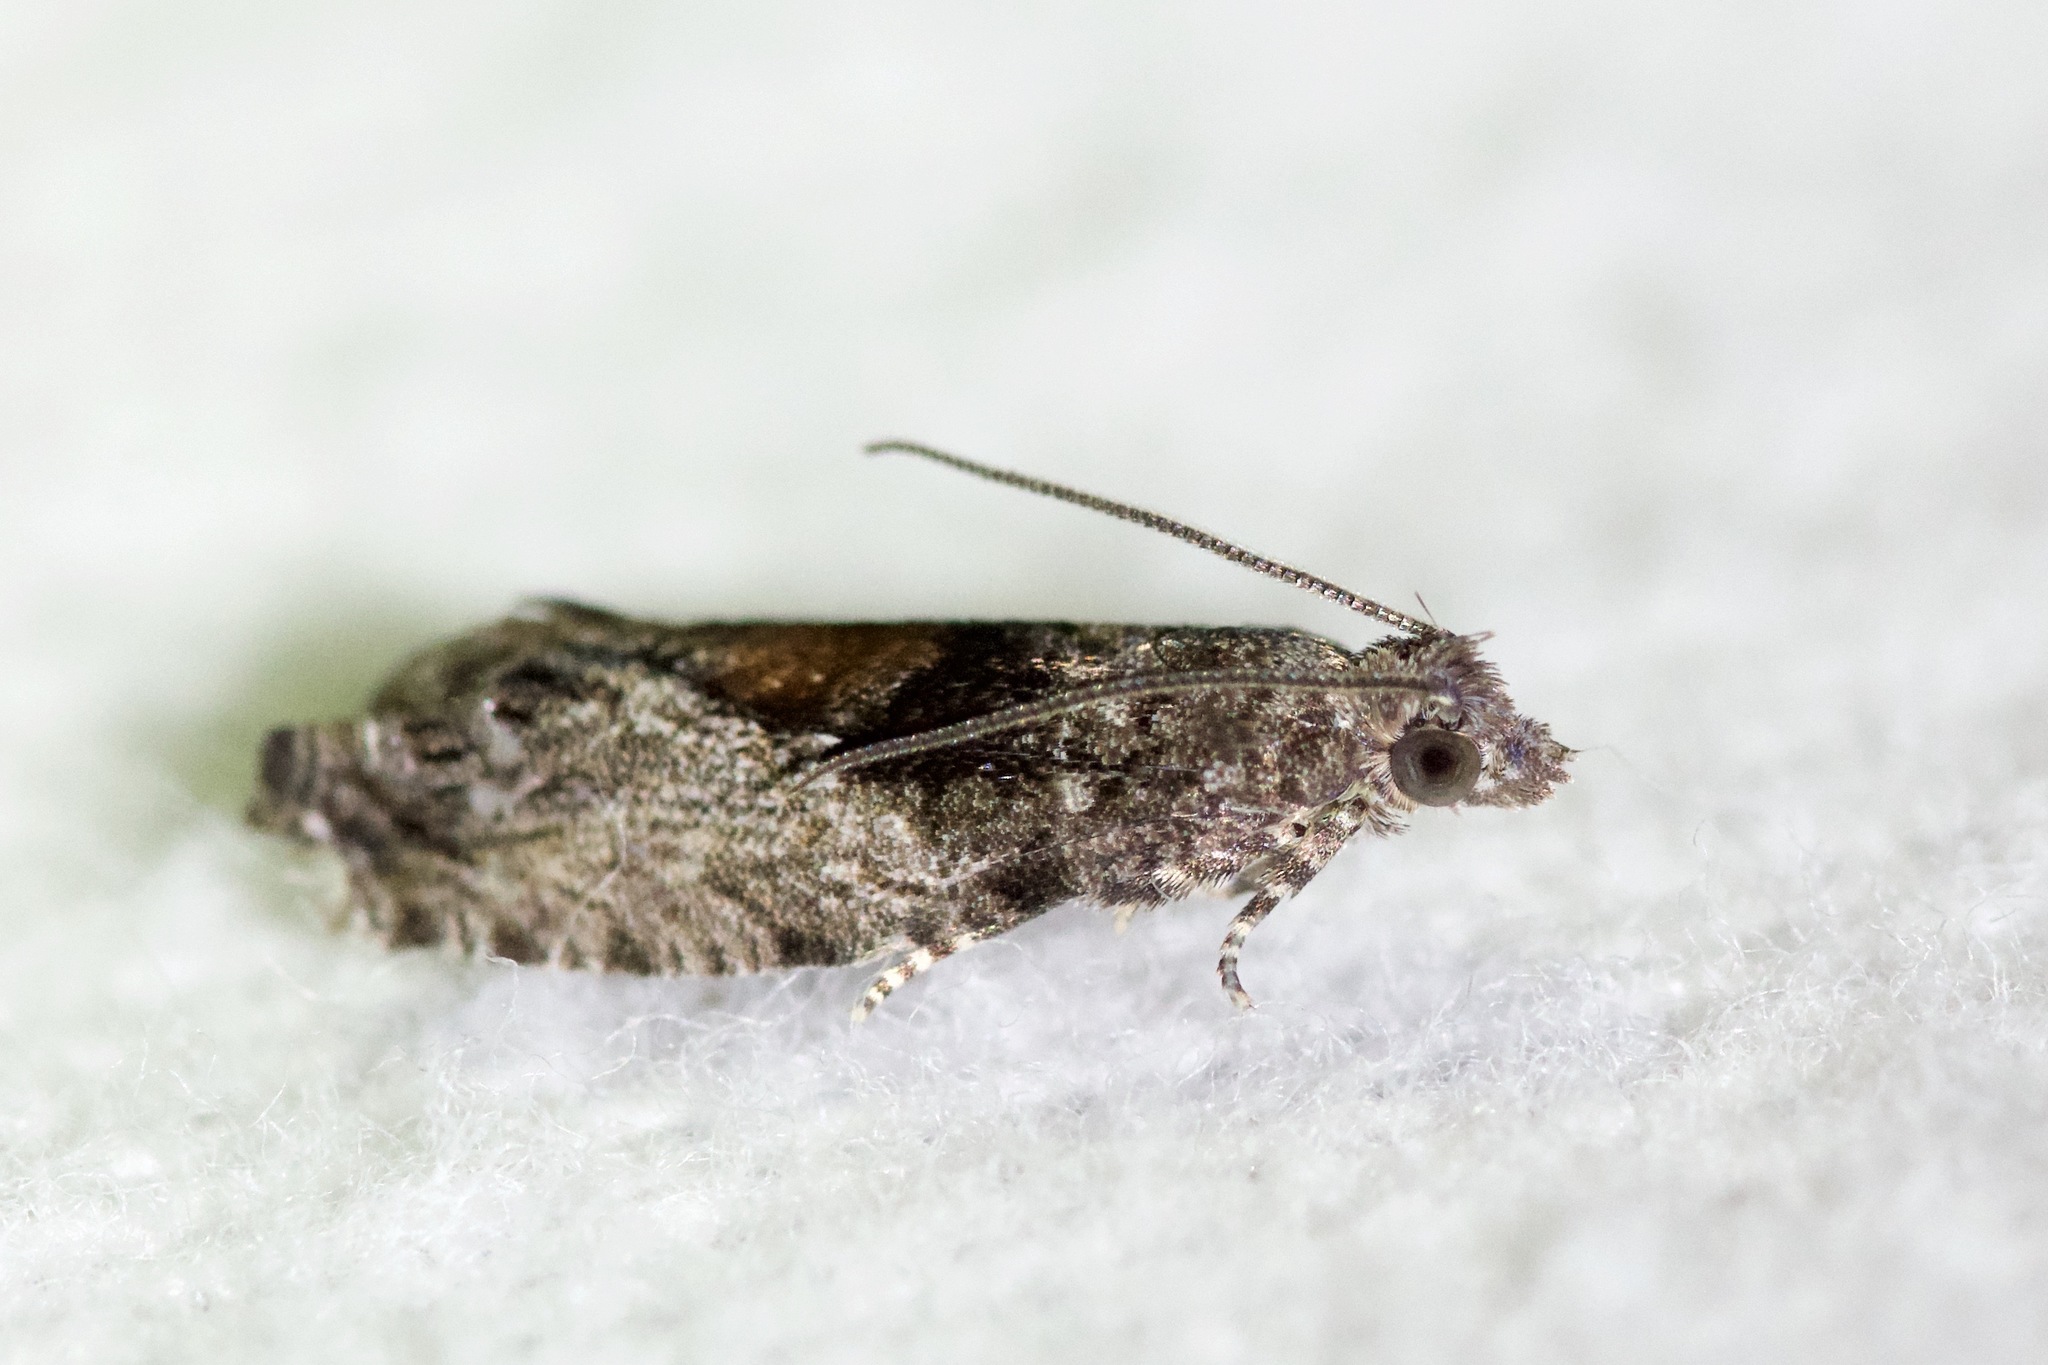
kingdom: Animalia
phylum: Arthropoda
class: Insecta
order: Lepidoptera
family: Tortricidae
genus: Epinotia
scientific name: Epinotia nisella
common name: Grey poplar bell
